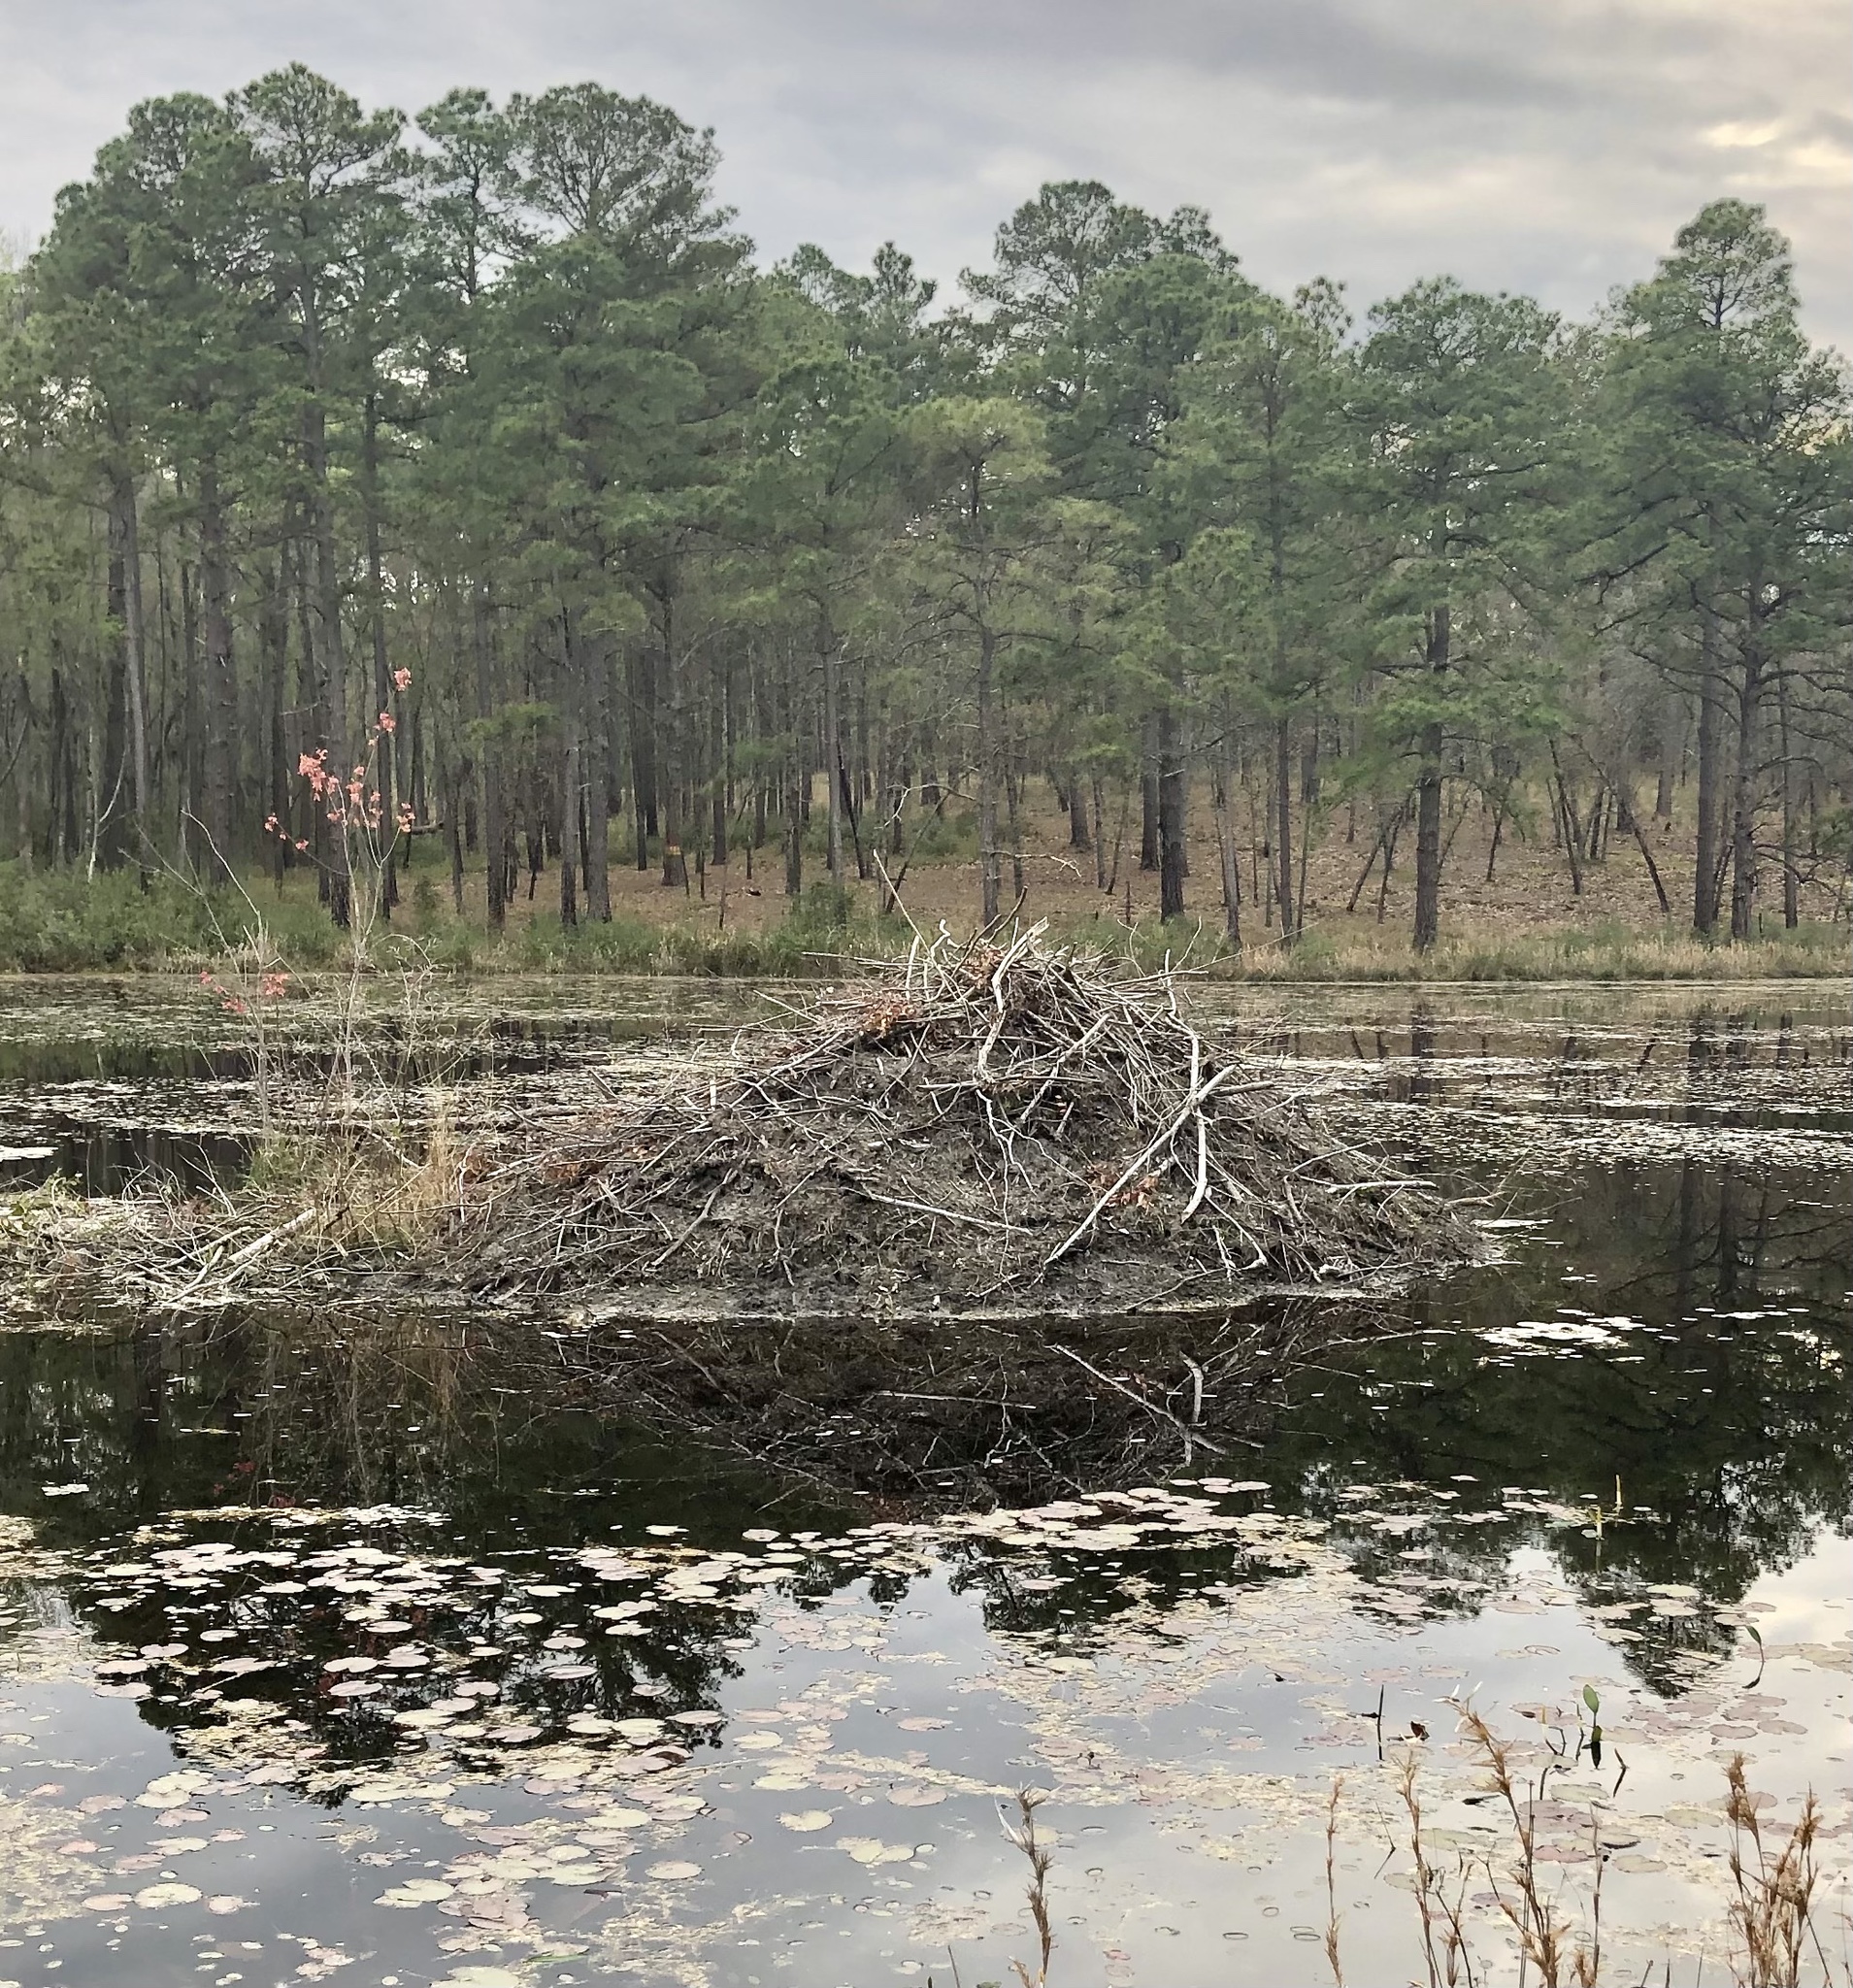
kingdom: Animalia
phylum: Chordata
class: Mammalia
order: Rodentia
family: Castoridae
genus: Castor
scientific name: Castor canadensis
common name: American beaver
